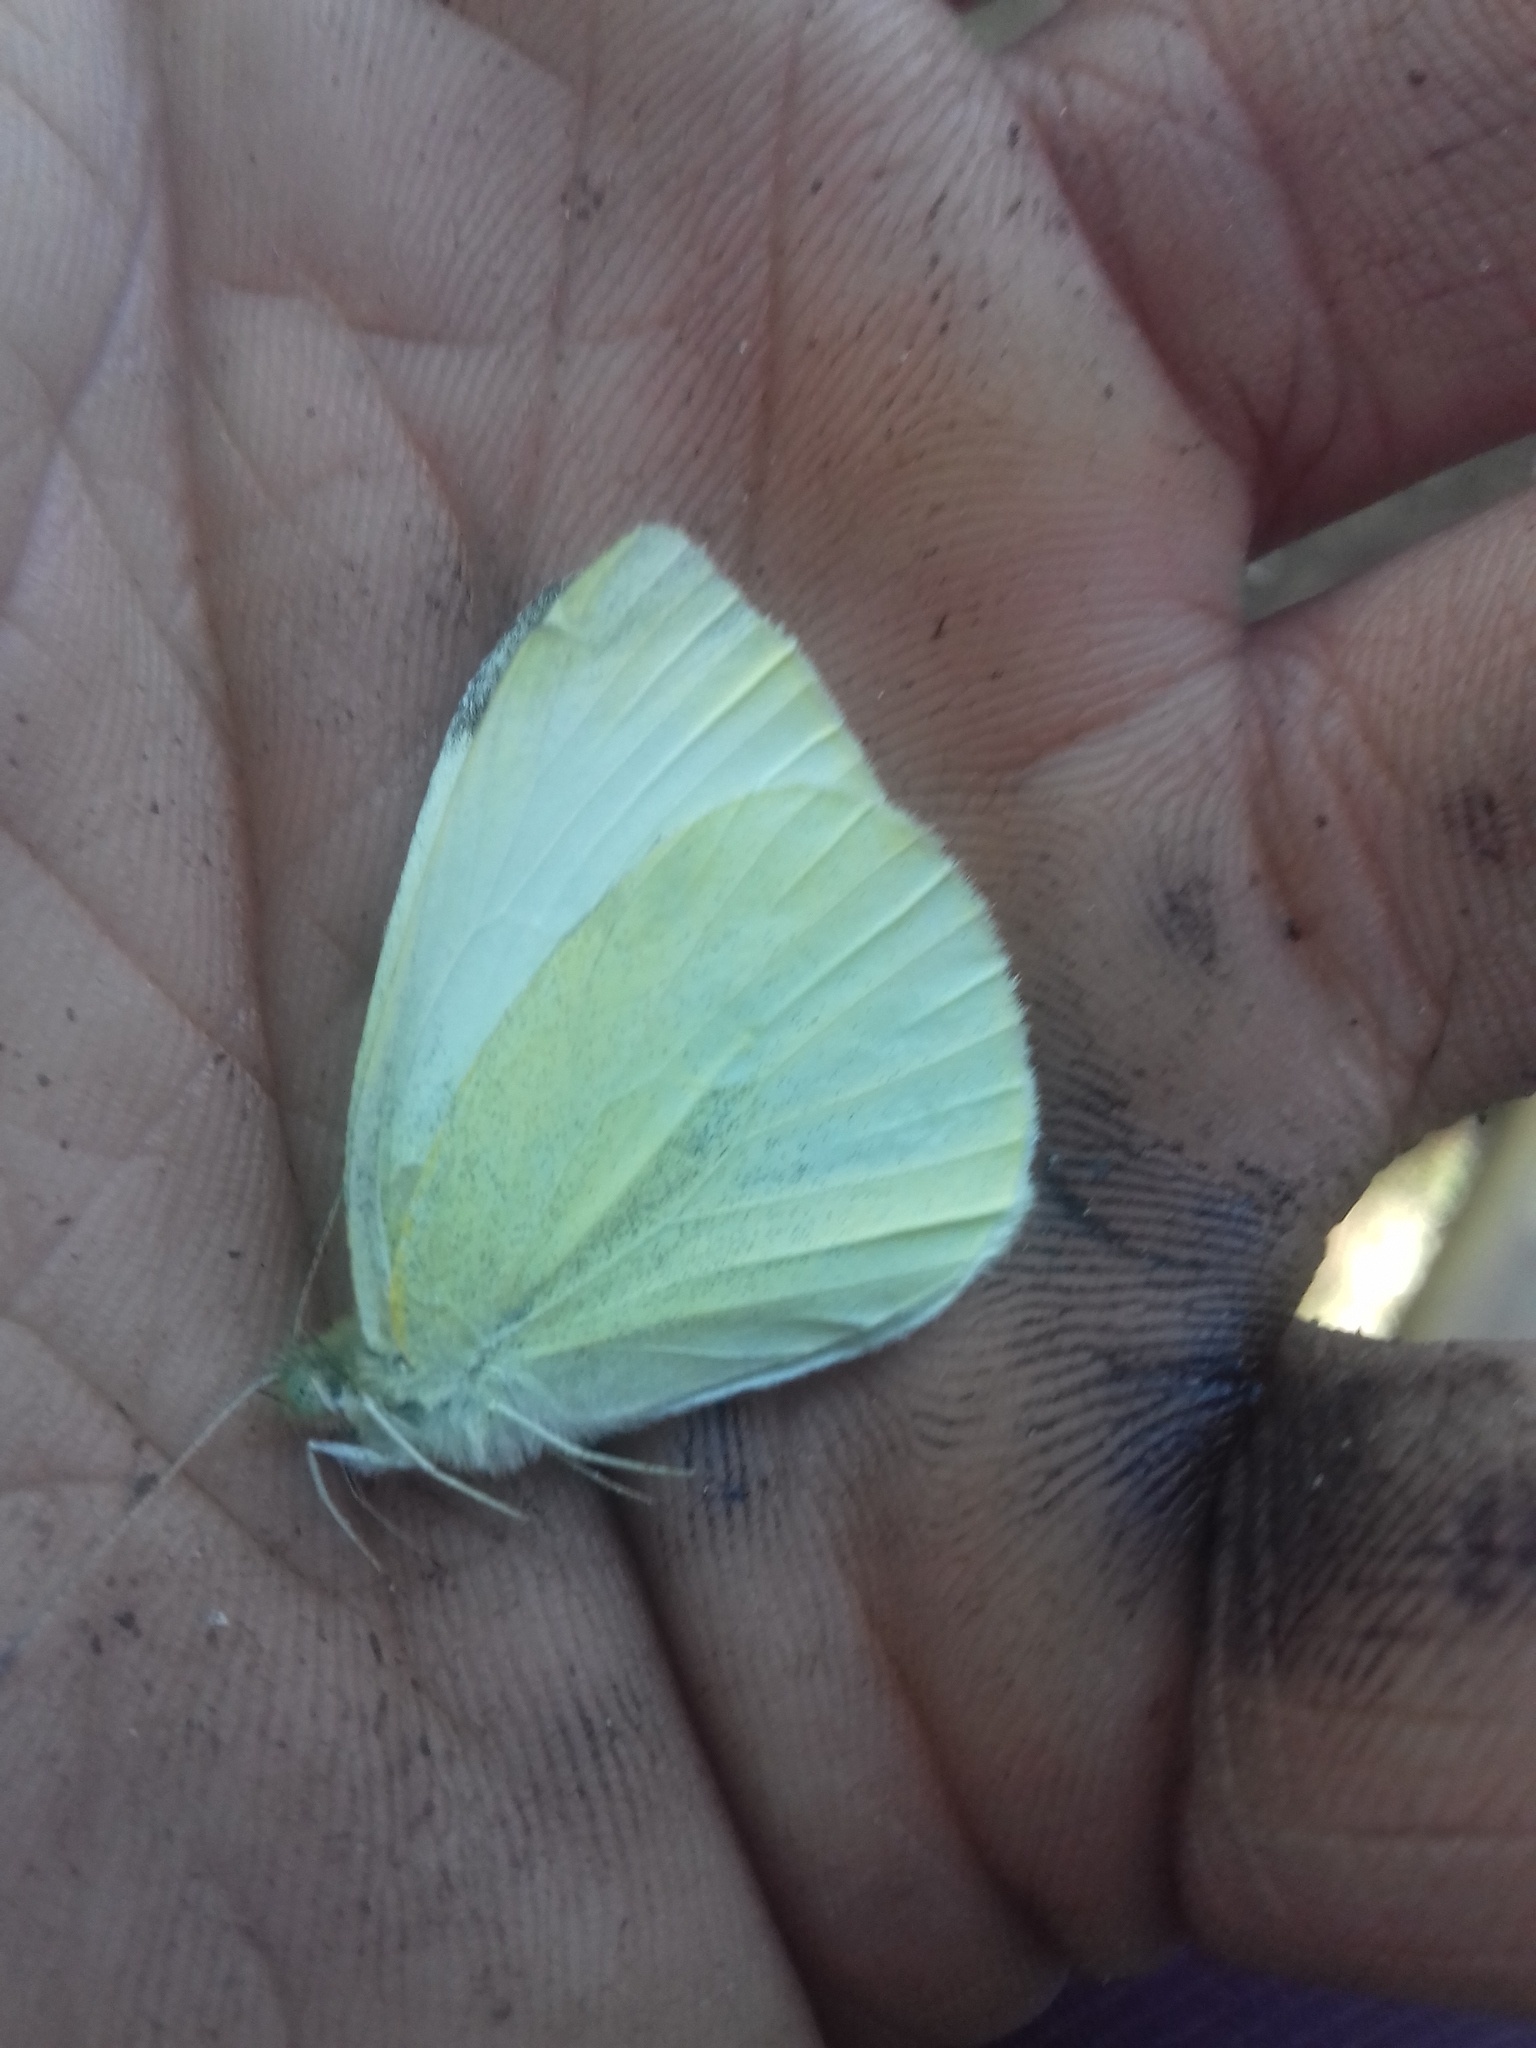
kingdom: Animalia
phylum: Arthropoda
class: Insecta
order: Lepidoptera
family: Pieridae
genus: Pieris
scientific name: Pieris rapae
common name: Small white
